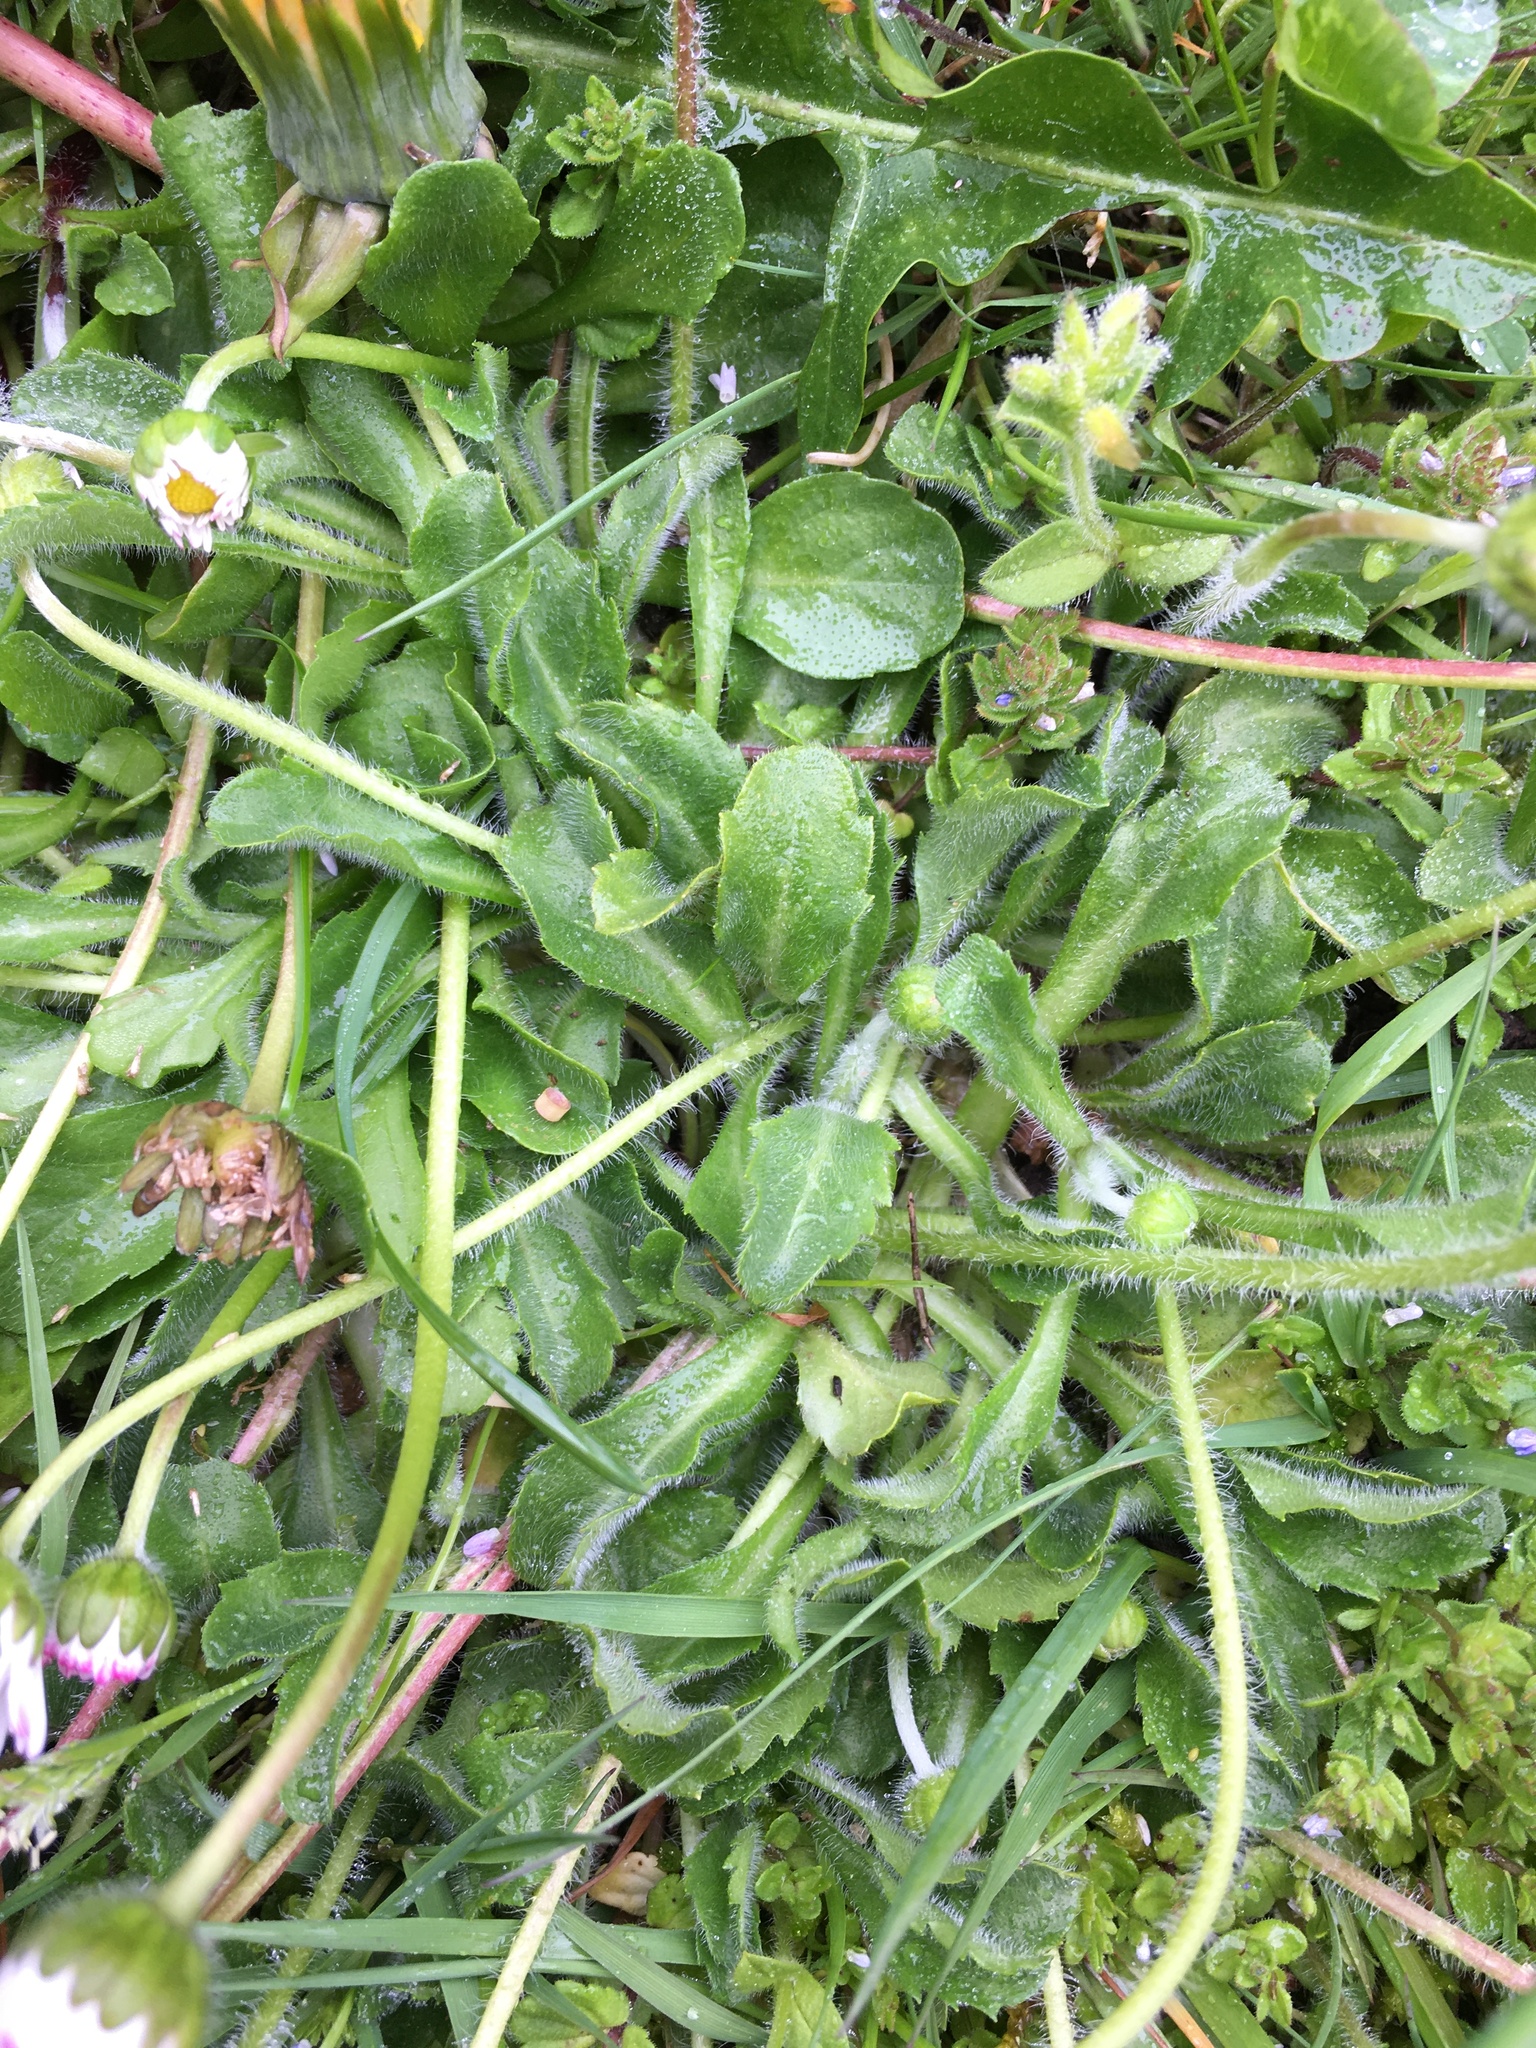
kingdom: Plantae
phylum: Tracheophyta
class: Magnoliopsida
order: Asterales
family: Asteraceae
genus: Bellis
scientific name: Bellis perennis
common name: Lawndaisy
